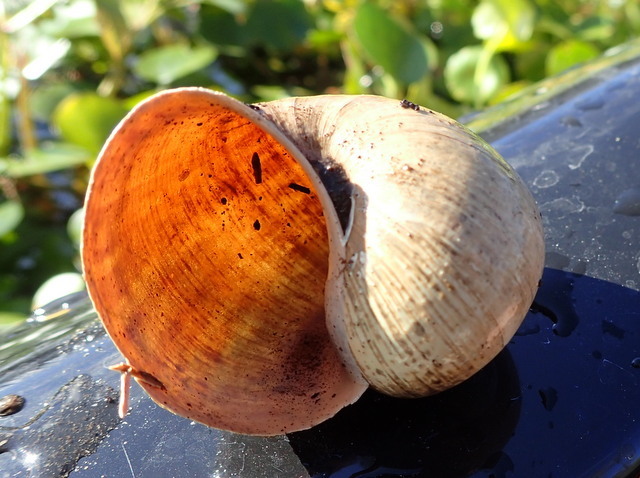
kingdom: Animalia
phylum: Mollusca
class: Gastropoda
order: Architaenioglossa
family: Ampullariidae
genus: Pomacea
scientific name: Pomacea paludosa
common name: Florida applesnail
